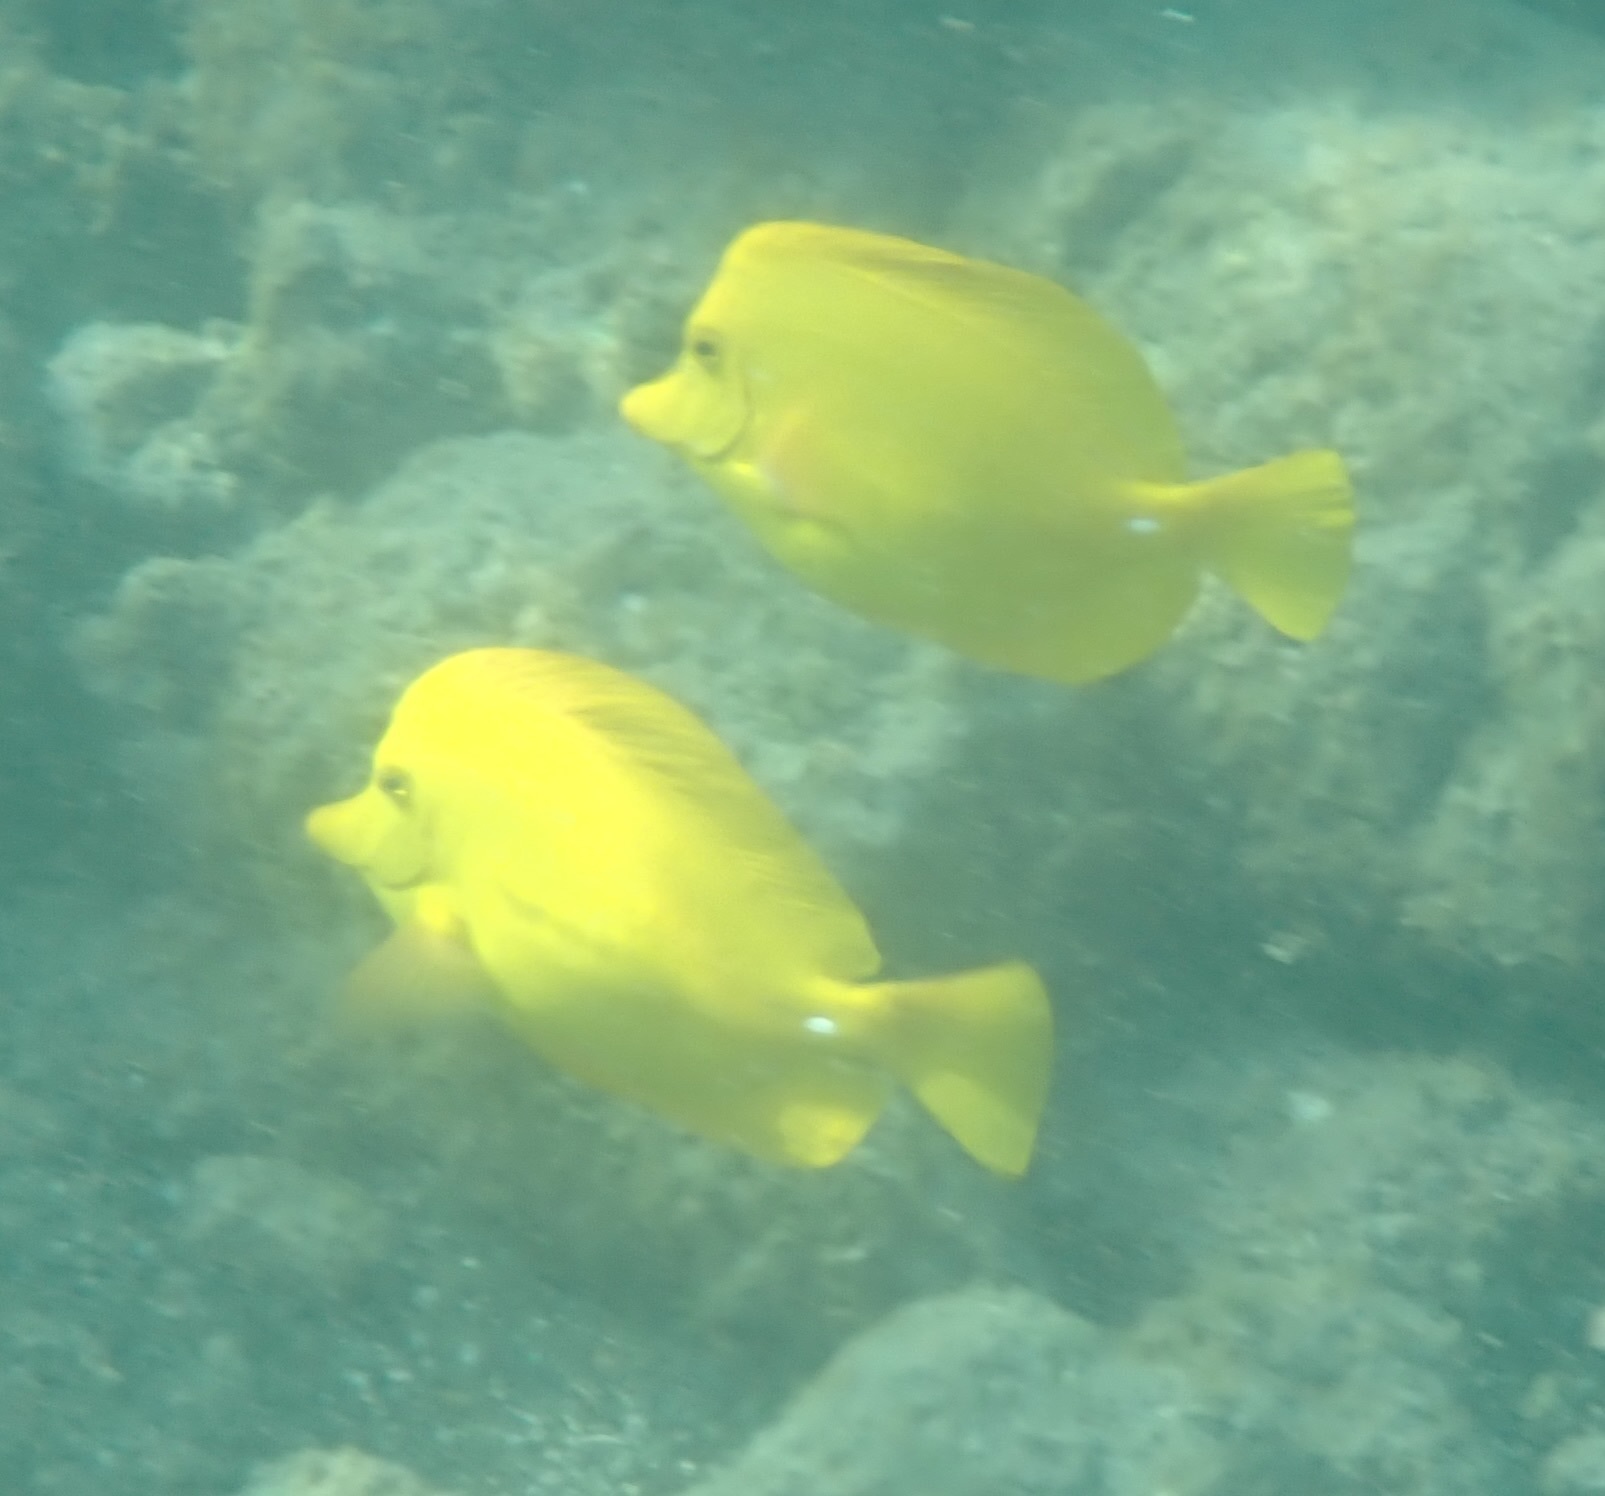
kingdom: Animalia
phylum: Chordata
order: Perciformes
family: Acanthuridae
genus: Zebrasoma
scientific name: Zebrasoma flavescens
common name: Yellow tang
